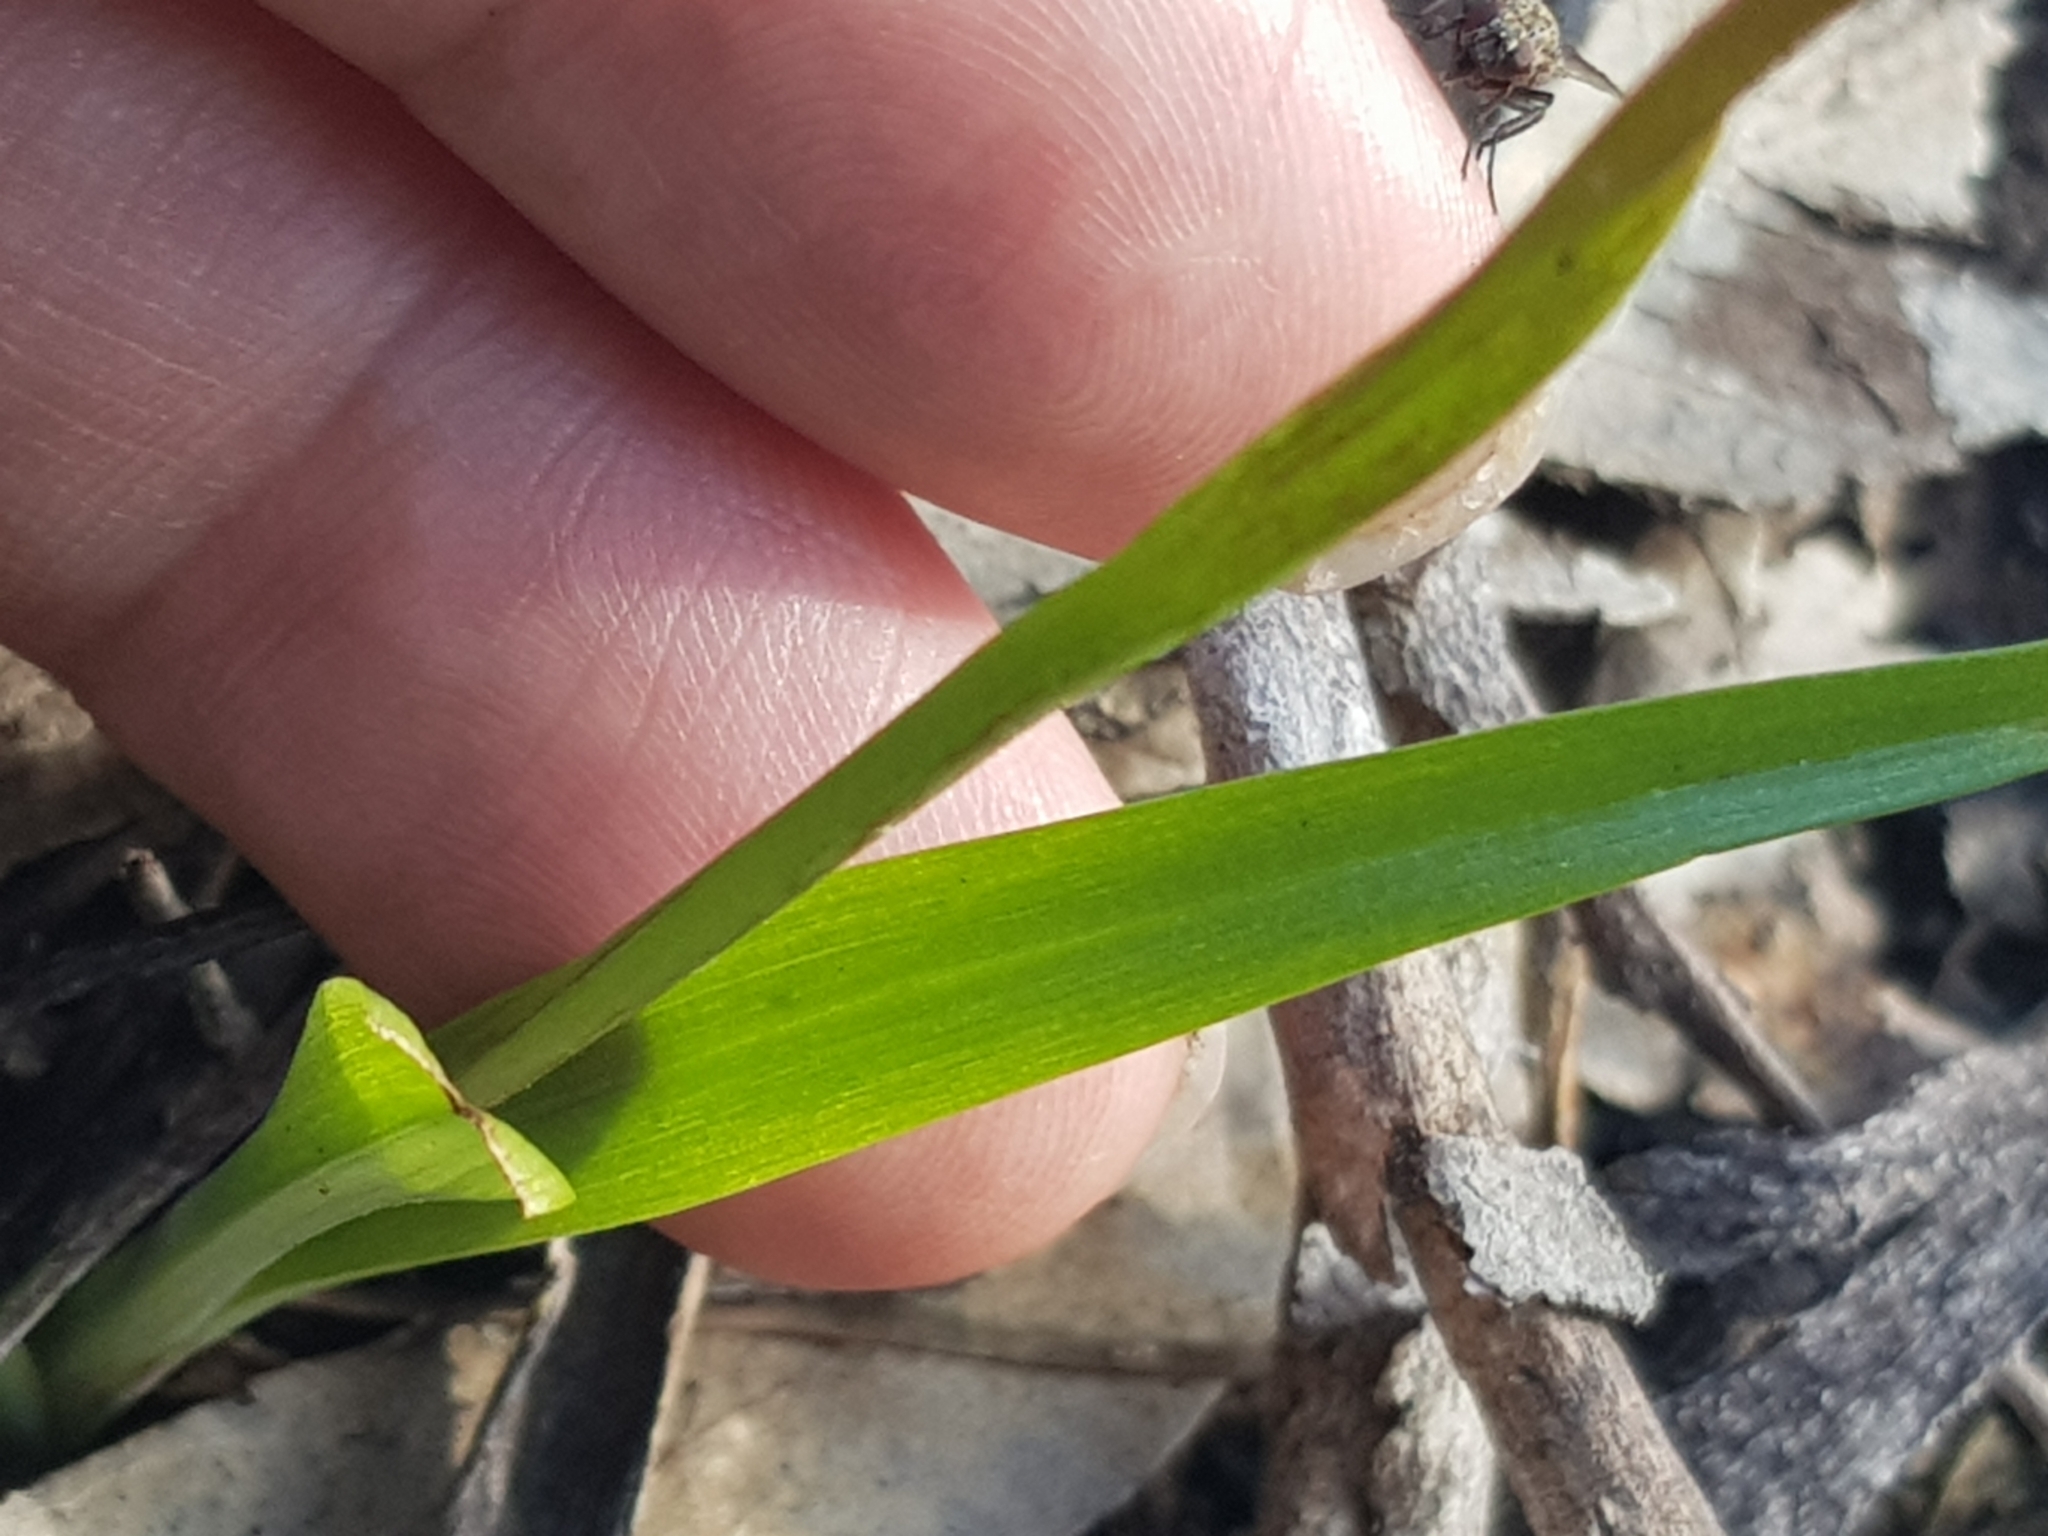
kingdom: Plantae
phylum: Tracheophyta
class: Liliopsida
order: Asparagales
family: Orchidaceae
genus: Diuris
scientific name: Diuris pardina
